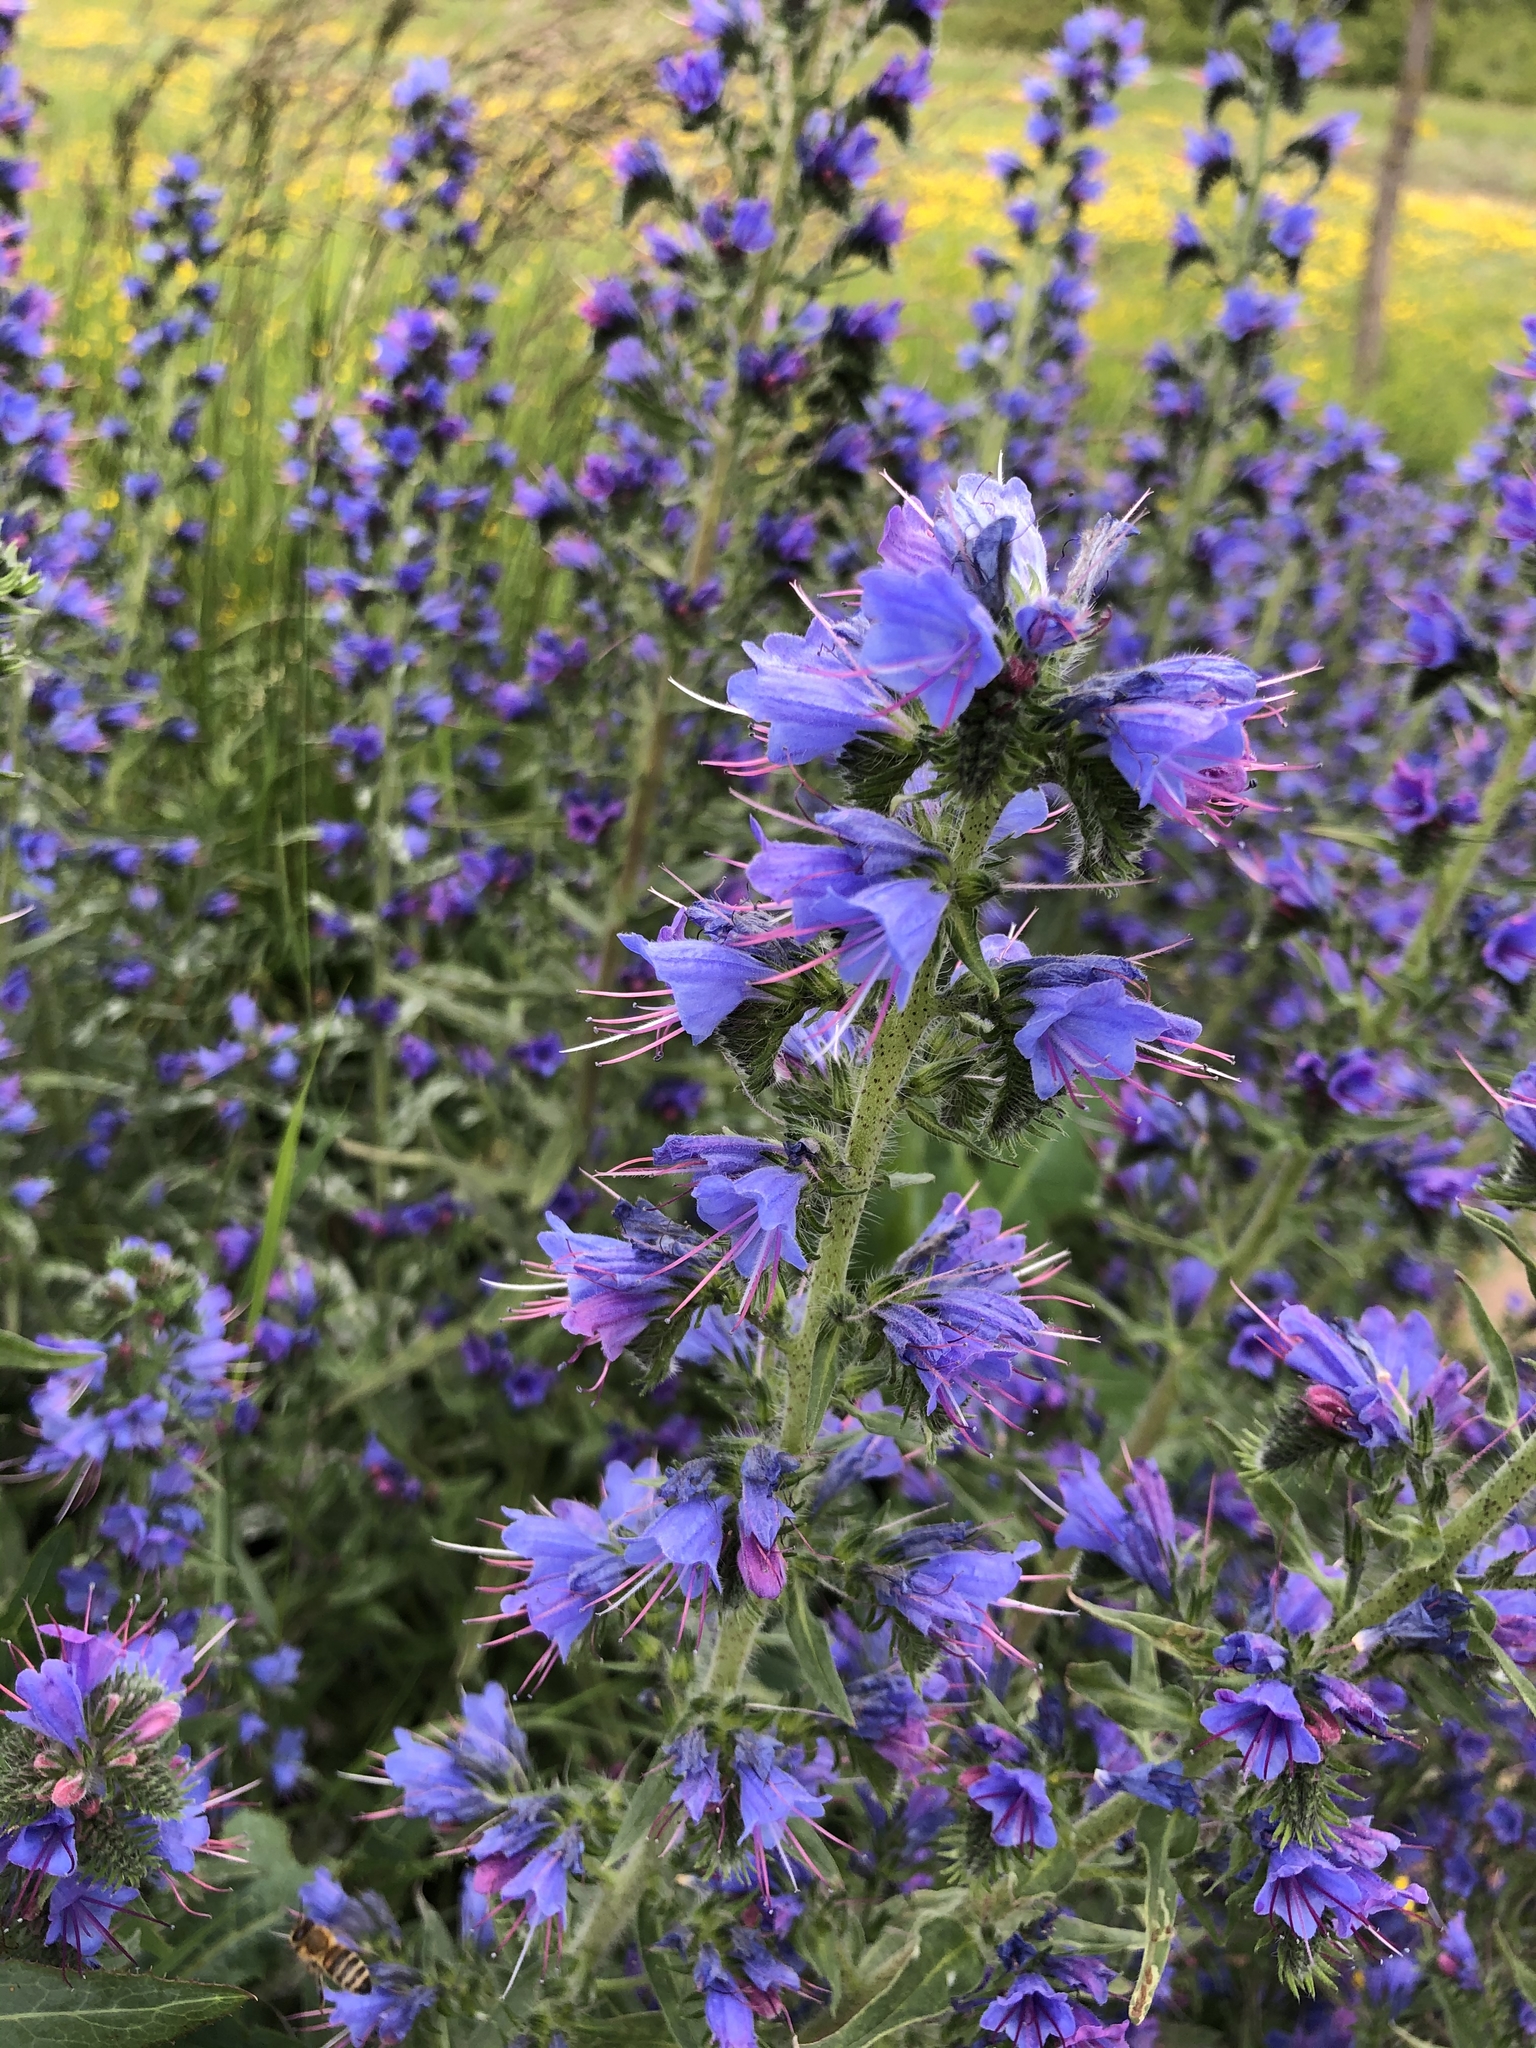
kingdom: Plantae
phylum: Tracheophyta
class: Magnoliopsida
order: Boraginales
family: Boraginaceae
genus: Echium
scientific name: Echium vulgare
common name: Common viper's bugloss
